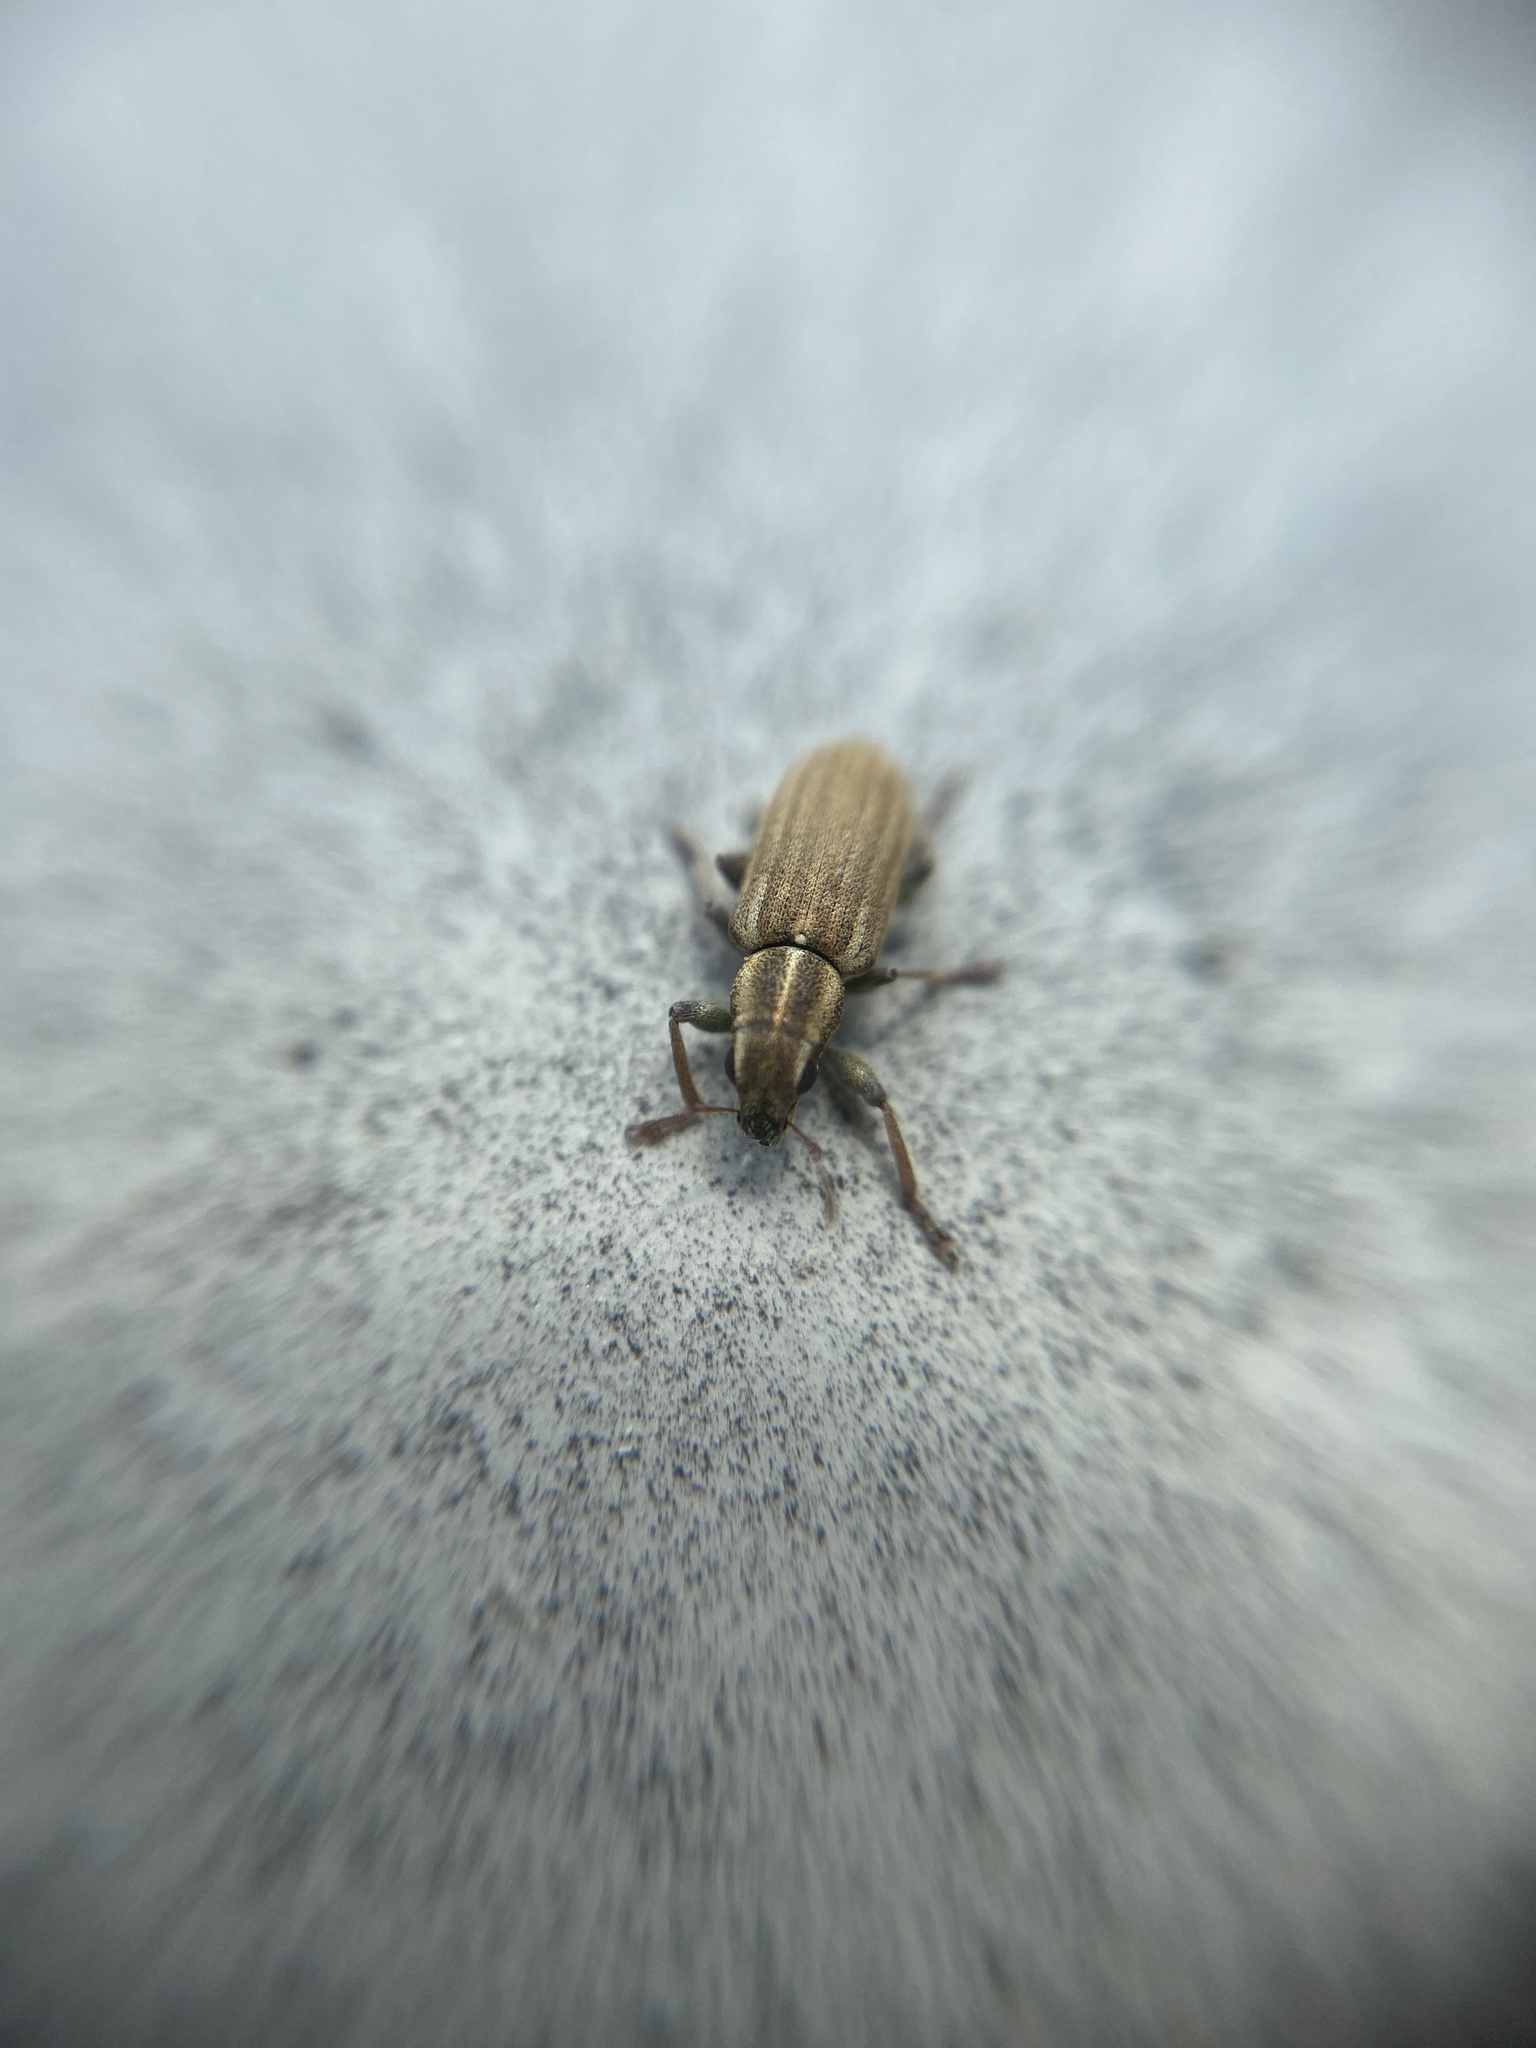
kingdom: Animalia
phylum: Arthropoda
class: Insecta
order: Coleoptera
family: Curculionidae
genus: Sitona
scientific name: Sitona lineatus
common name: Weevil
